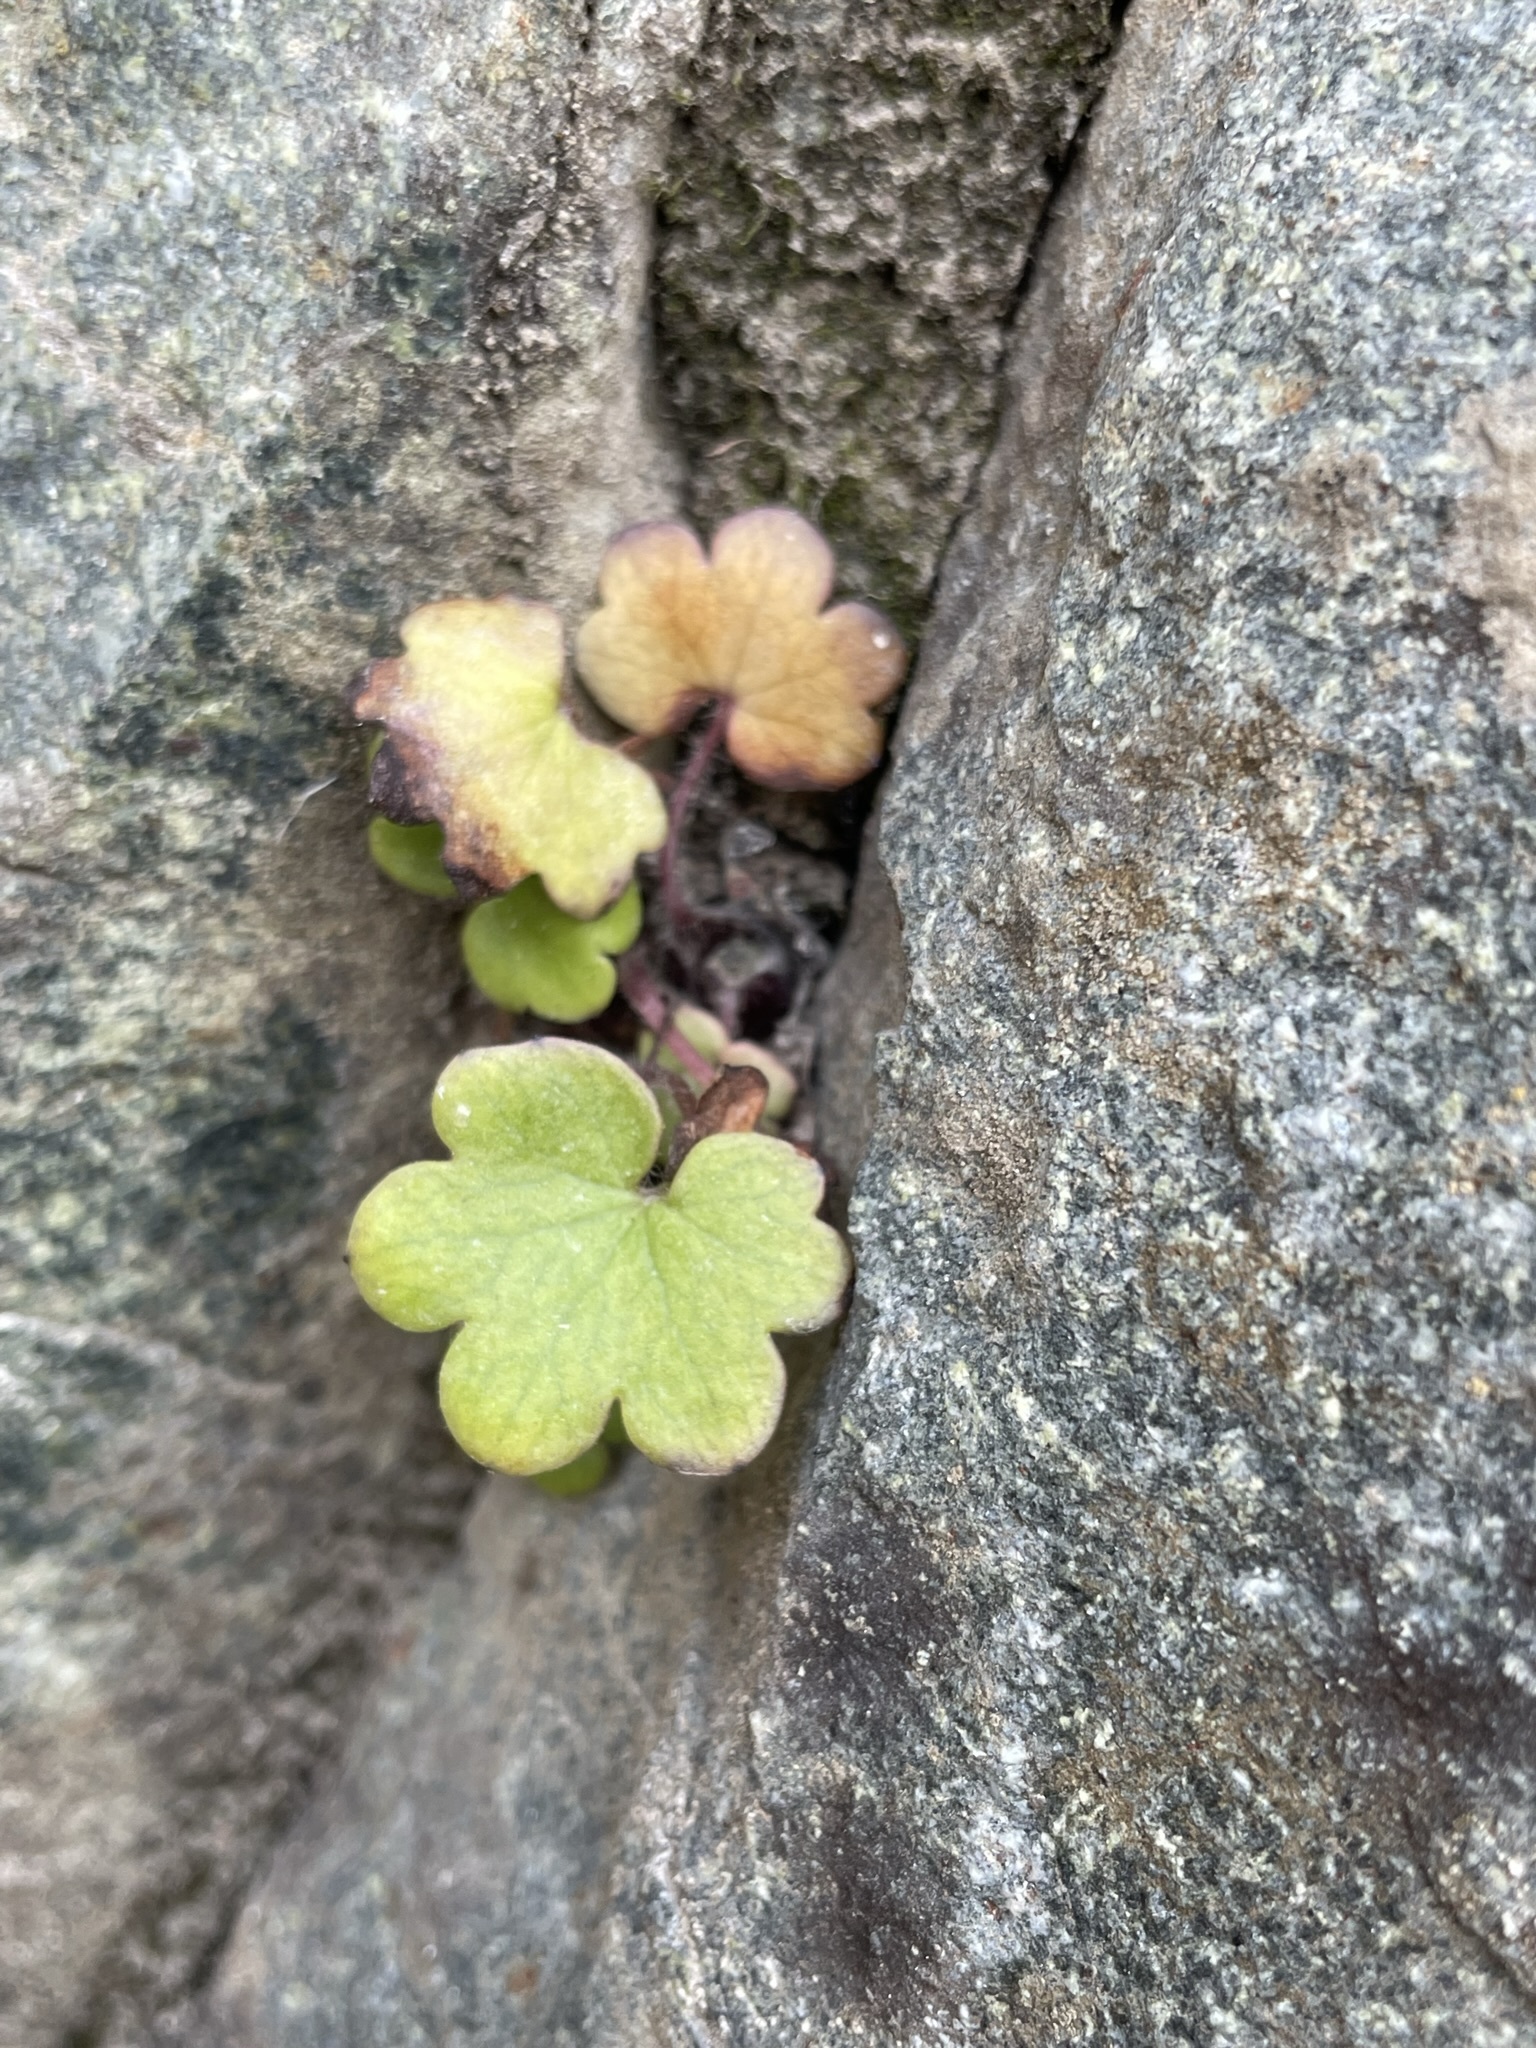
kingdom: Plantae
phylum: Tracheophyta
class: Magnoliopsida
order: Boraginales
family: Hydrophyllaceae
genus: Romanzoffia
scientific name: Romanzoffia sitchensis
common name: Sitka mistmaid
